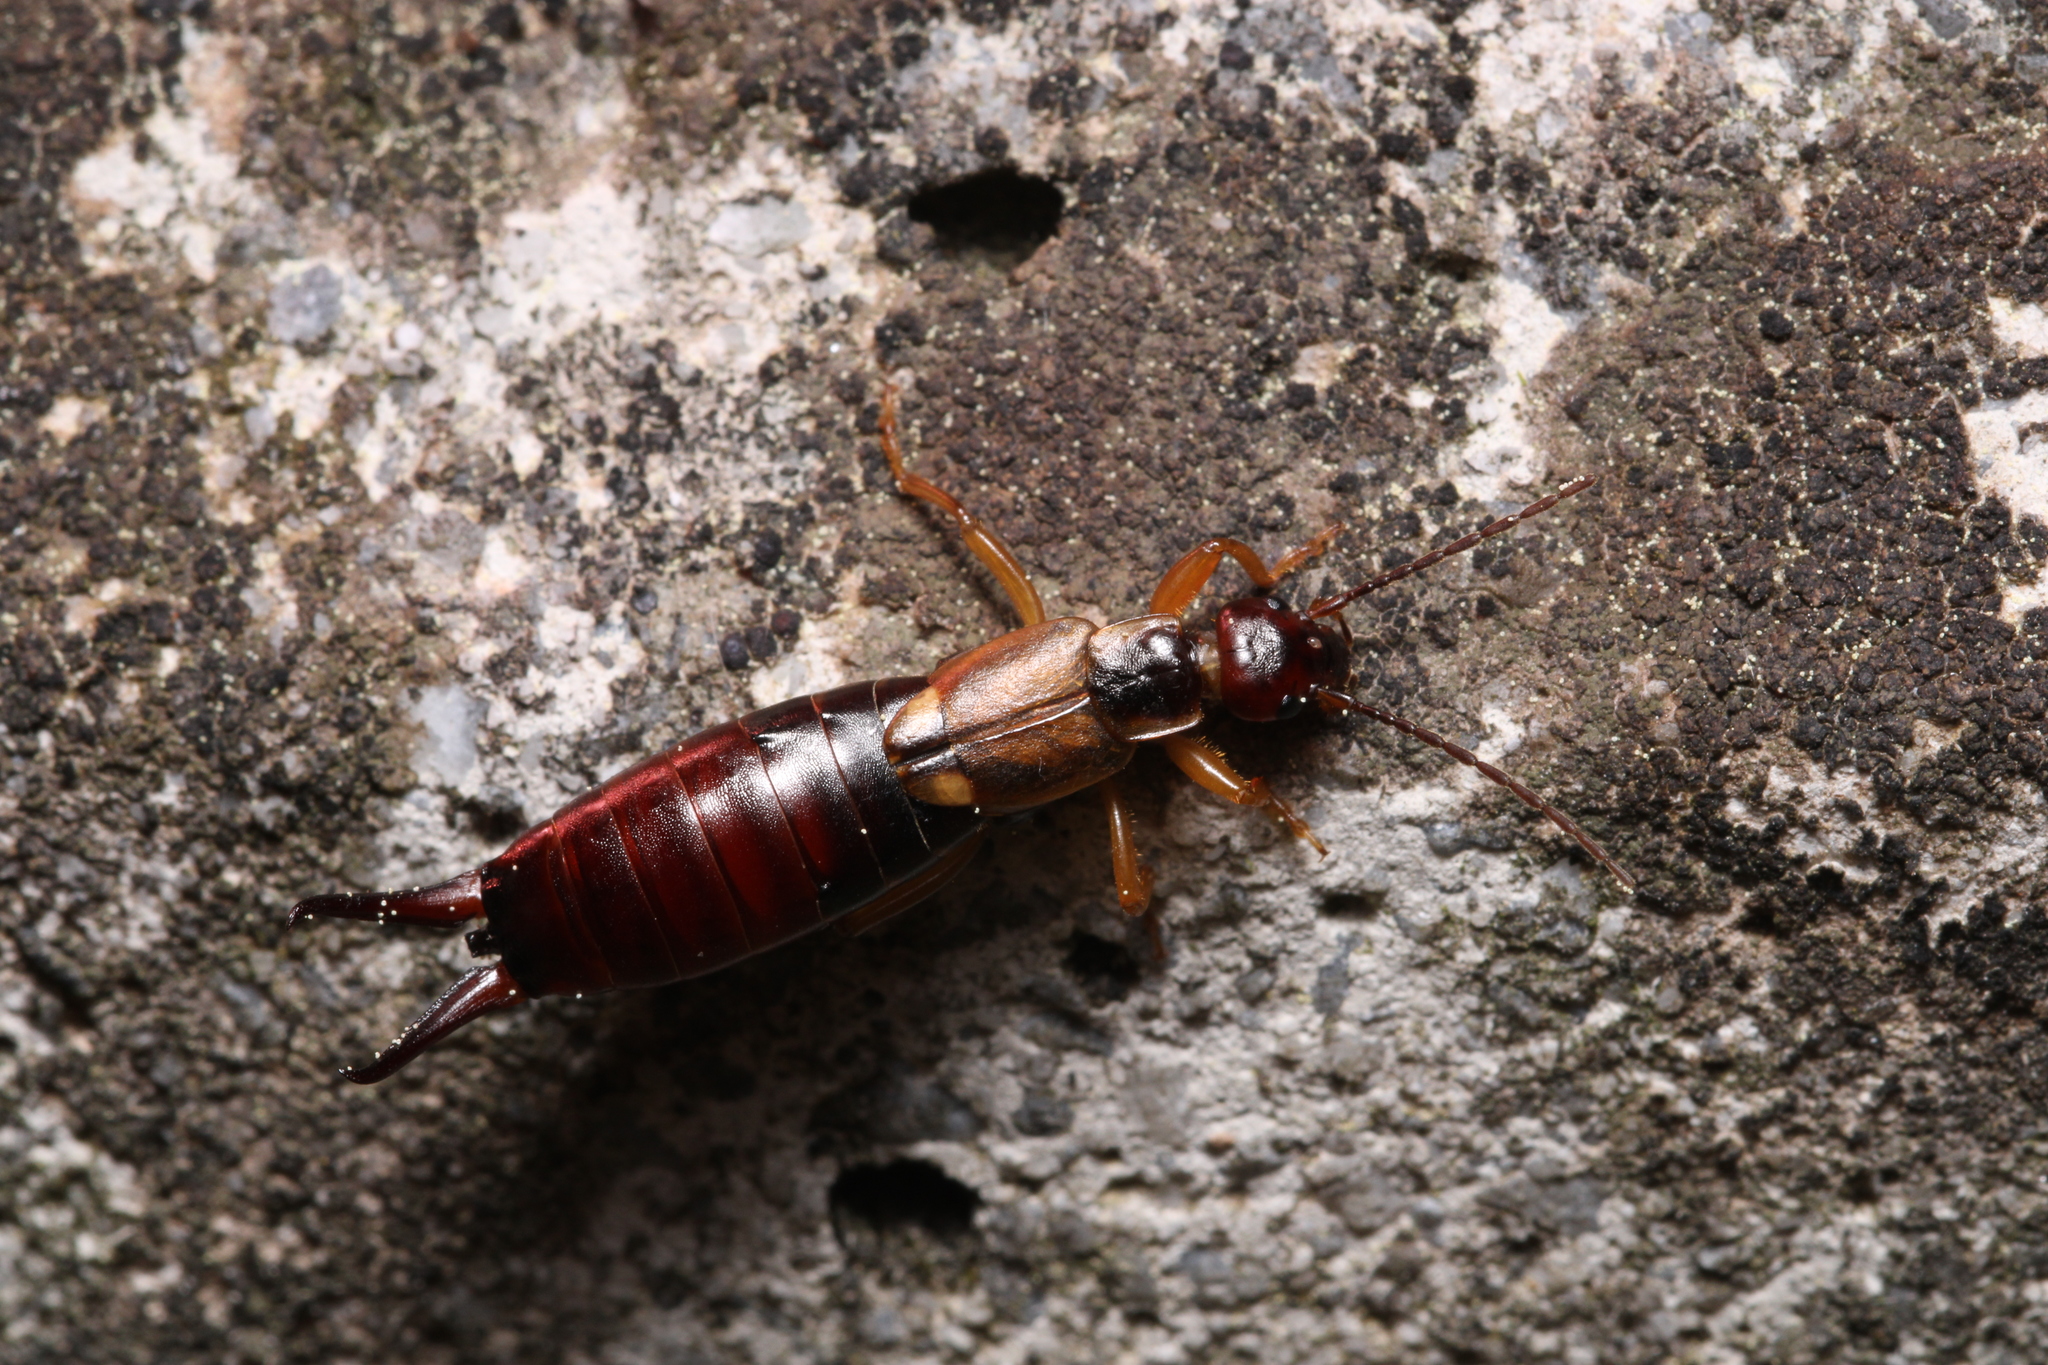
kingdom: Animalia
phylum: Arthropoda
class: Insecta
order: Dermaptera
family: Forficulidae
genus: Forficula
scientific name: Forficula
